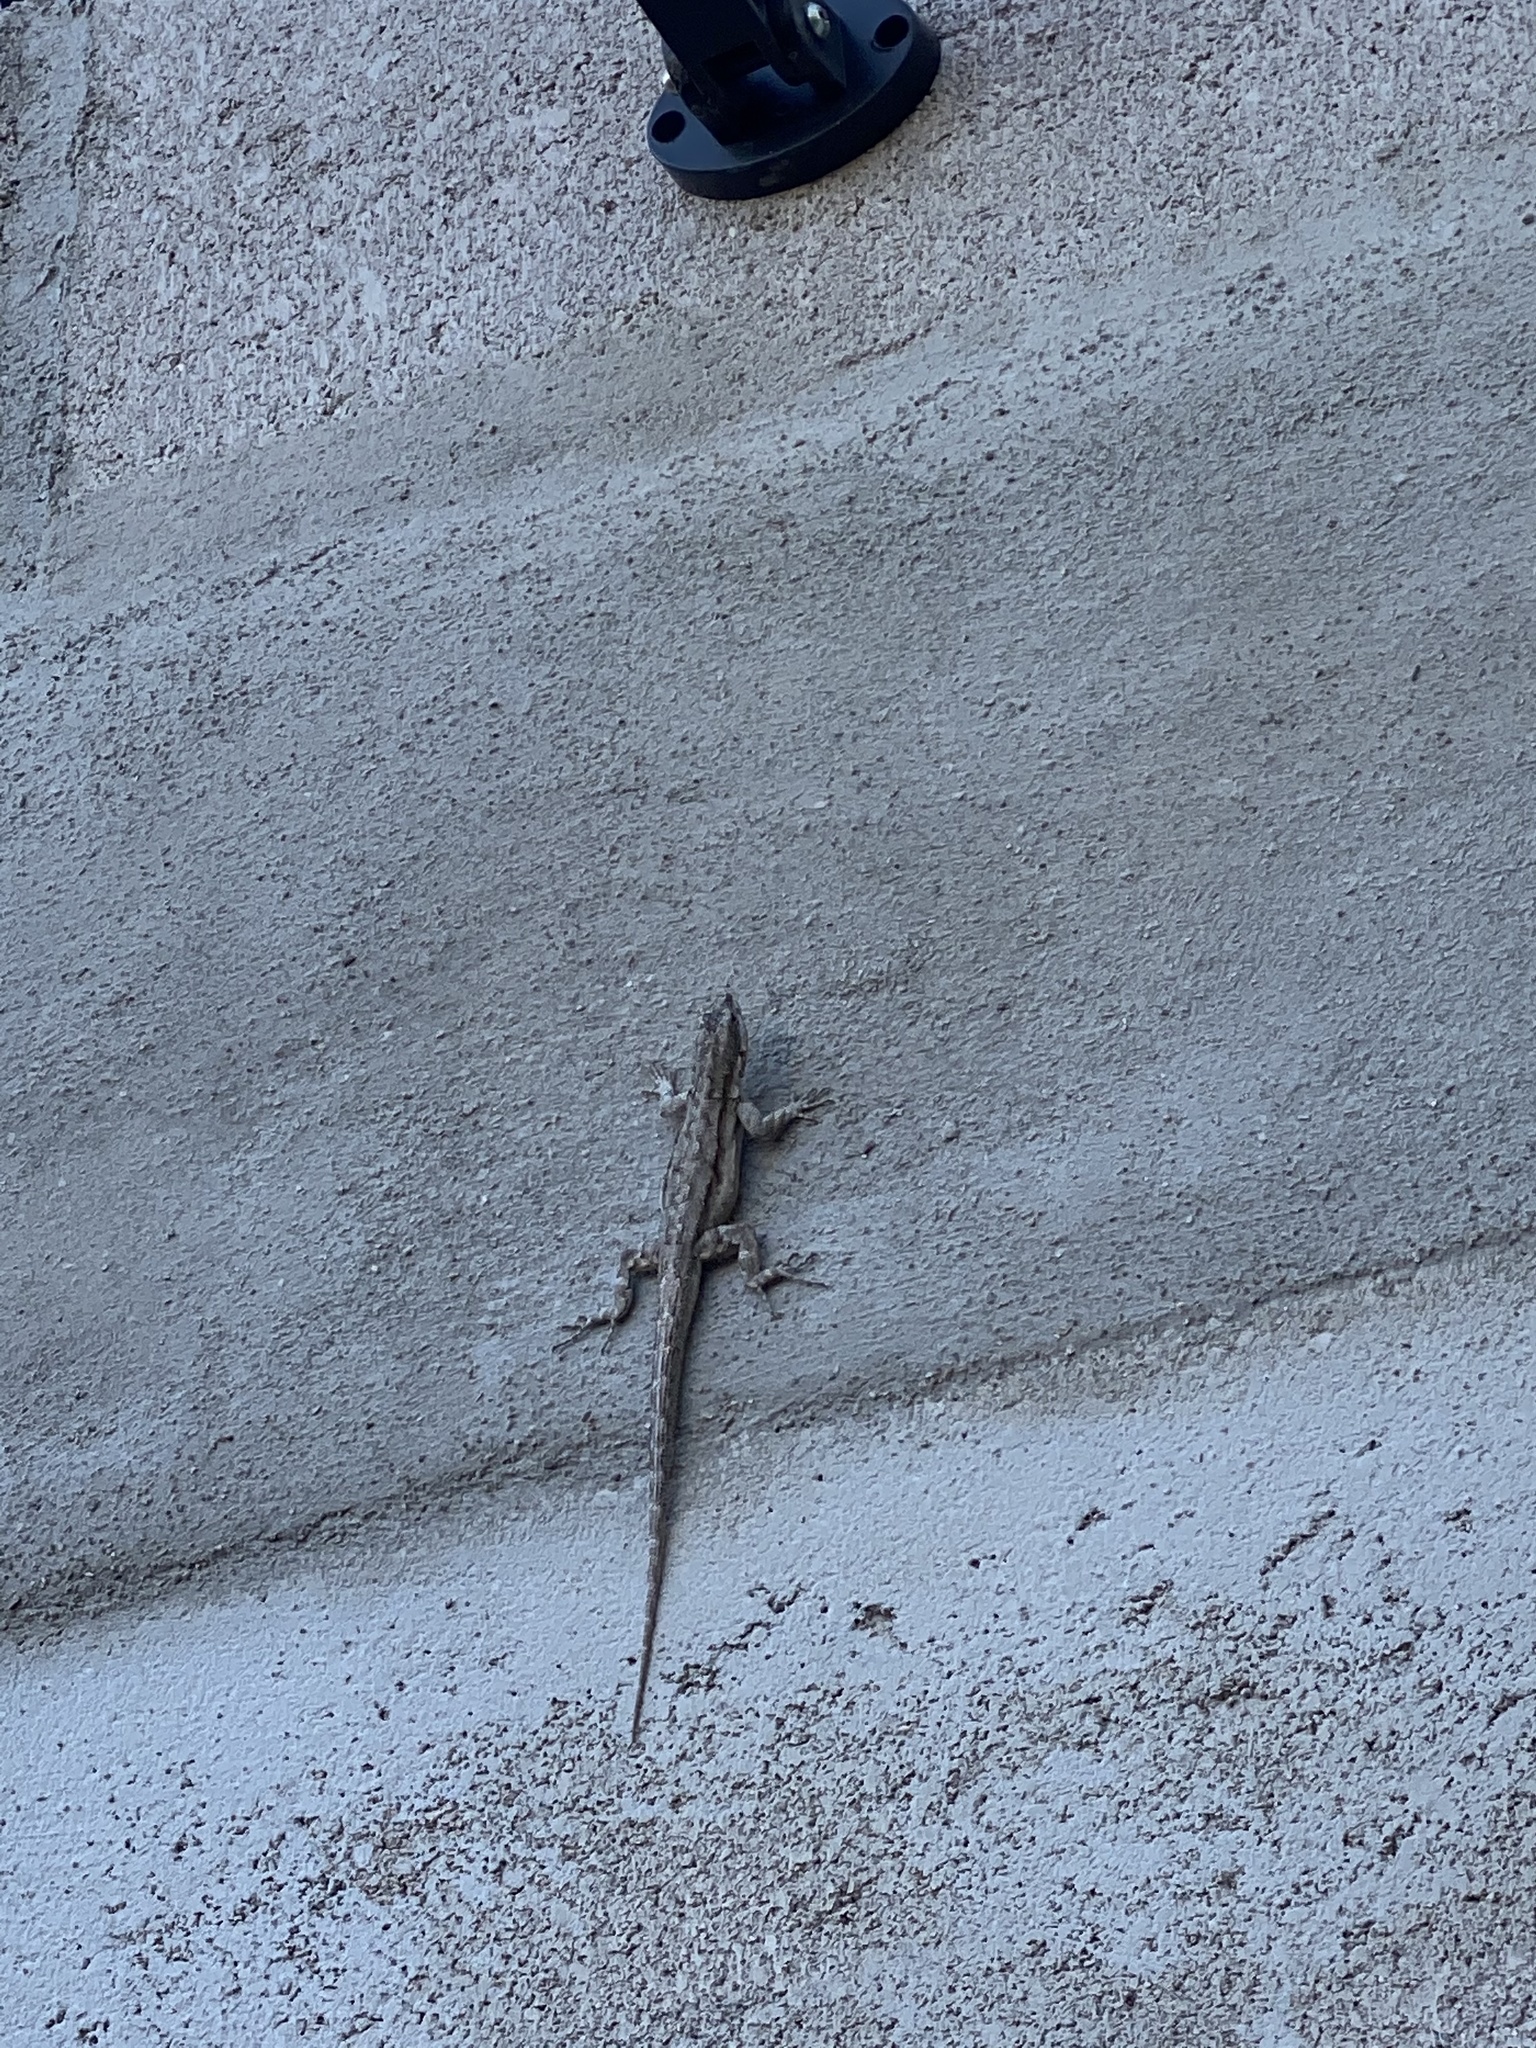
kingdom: Animalia
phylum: Chordata
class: Squamata
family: Phrynosomatidae
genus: Urosaurus
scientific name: Urosaurus ornatus
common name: Ornate tree lizard
